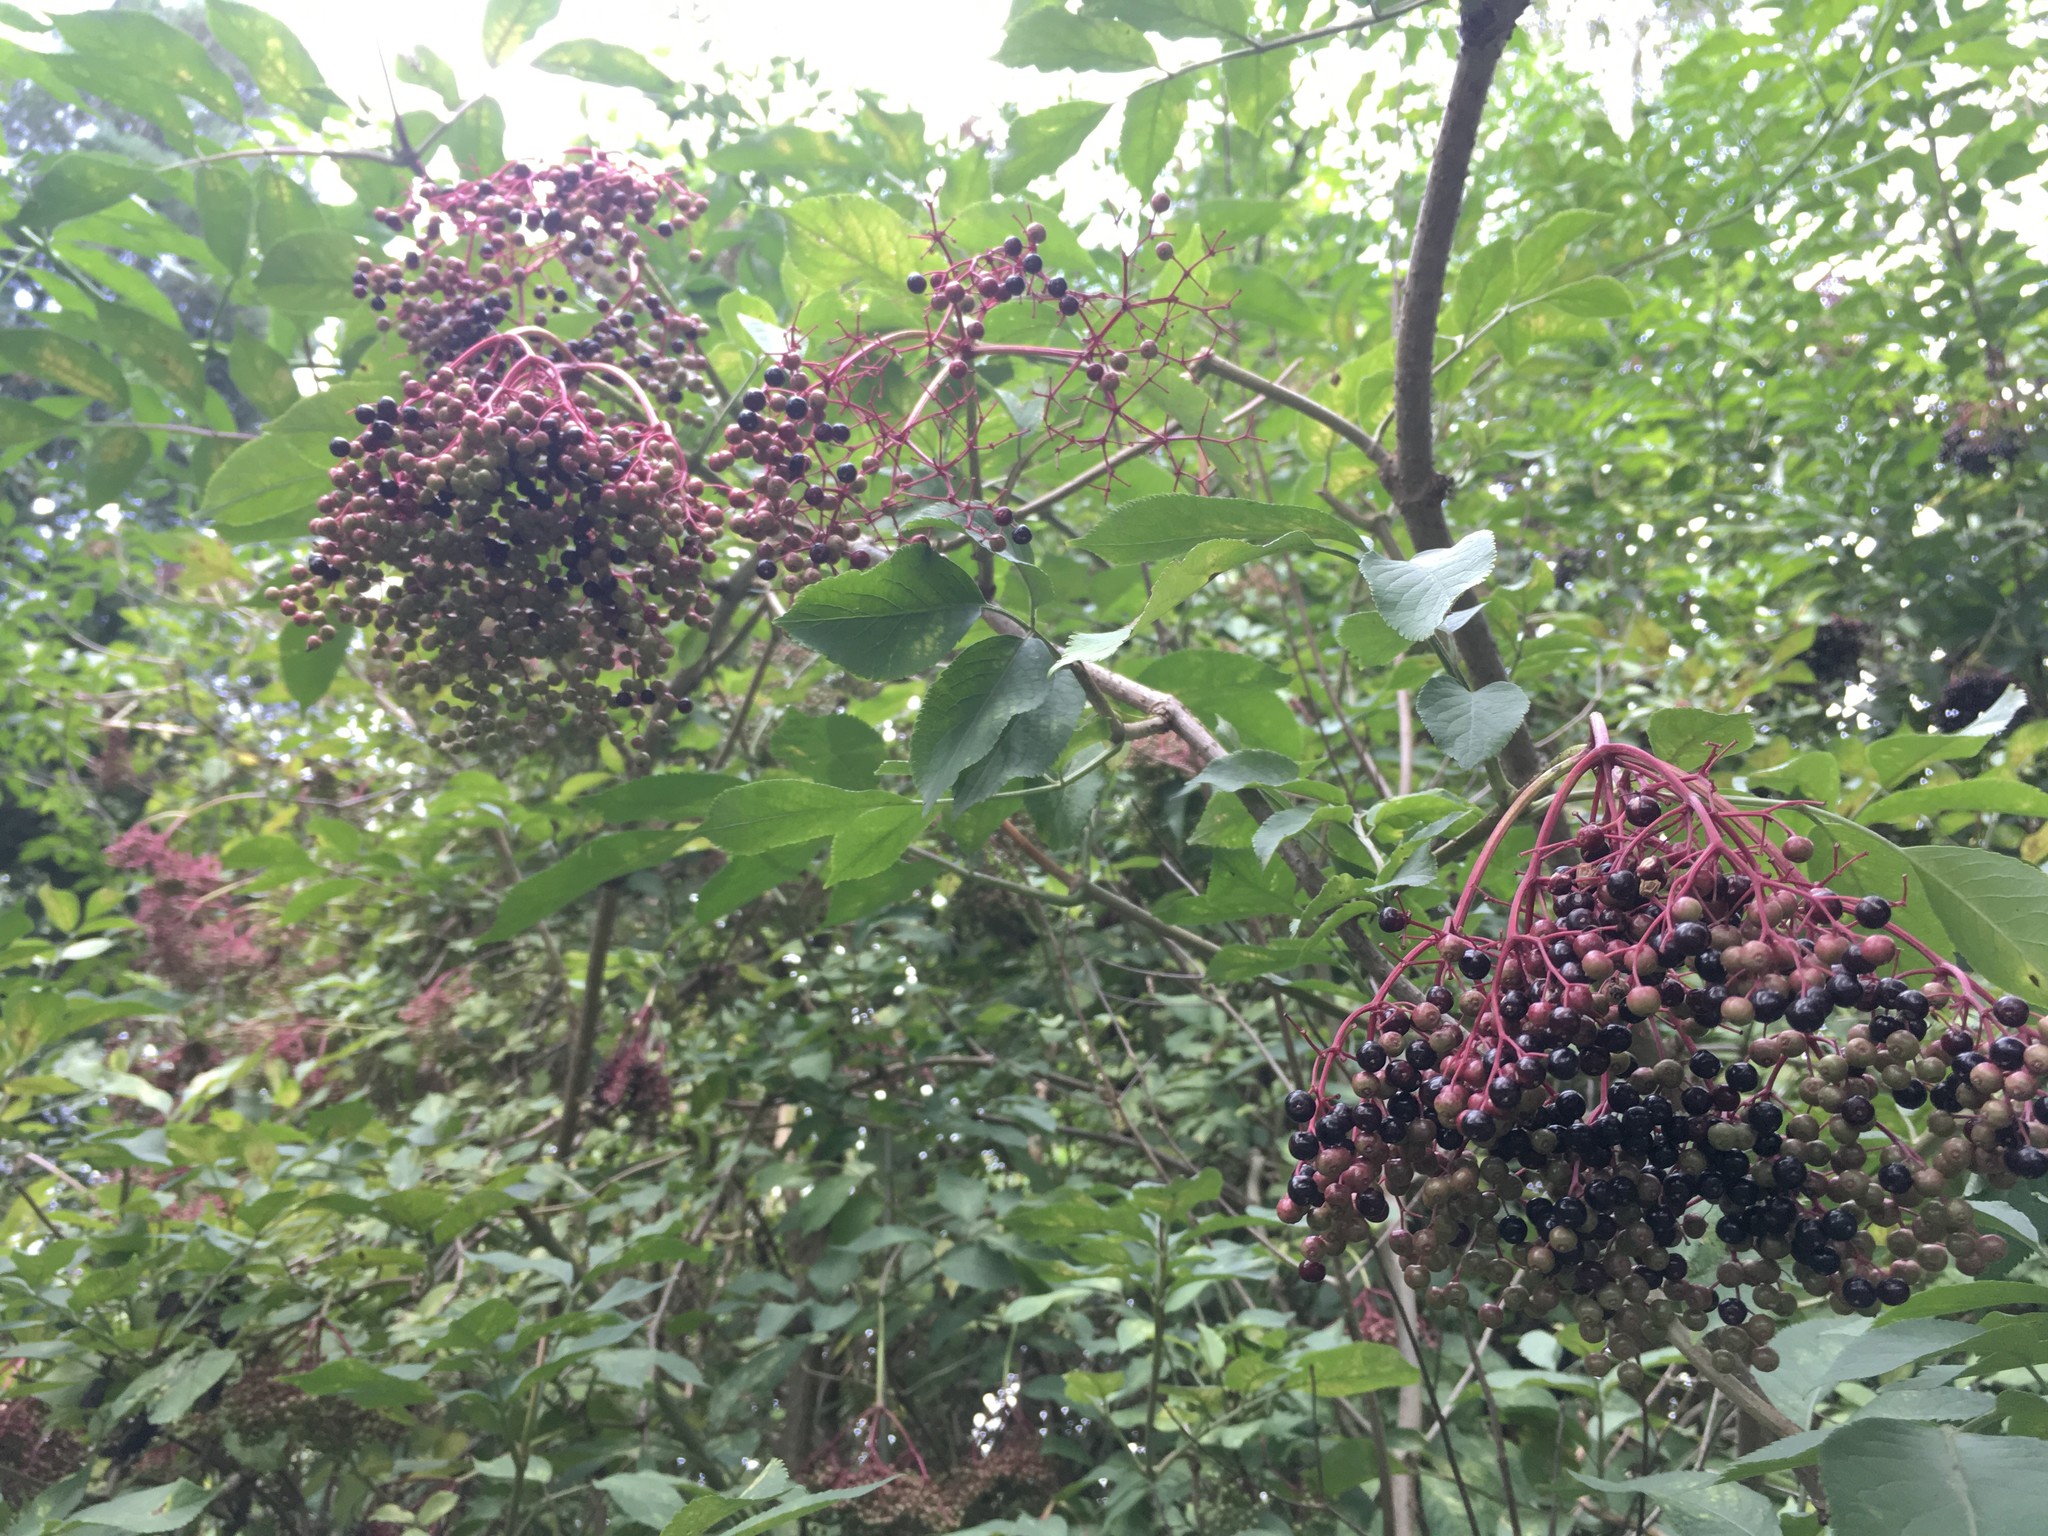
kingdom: Plantae
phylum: Tracheophyta
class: Magnoliopsida
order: Dipsacales
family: Viburnaceae
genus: Sambucus
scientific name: Sambucus nigra
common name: Elder
